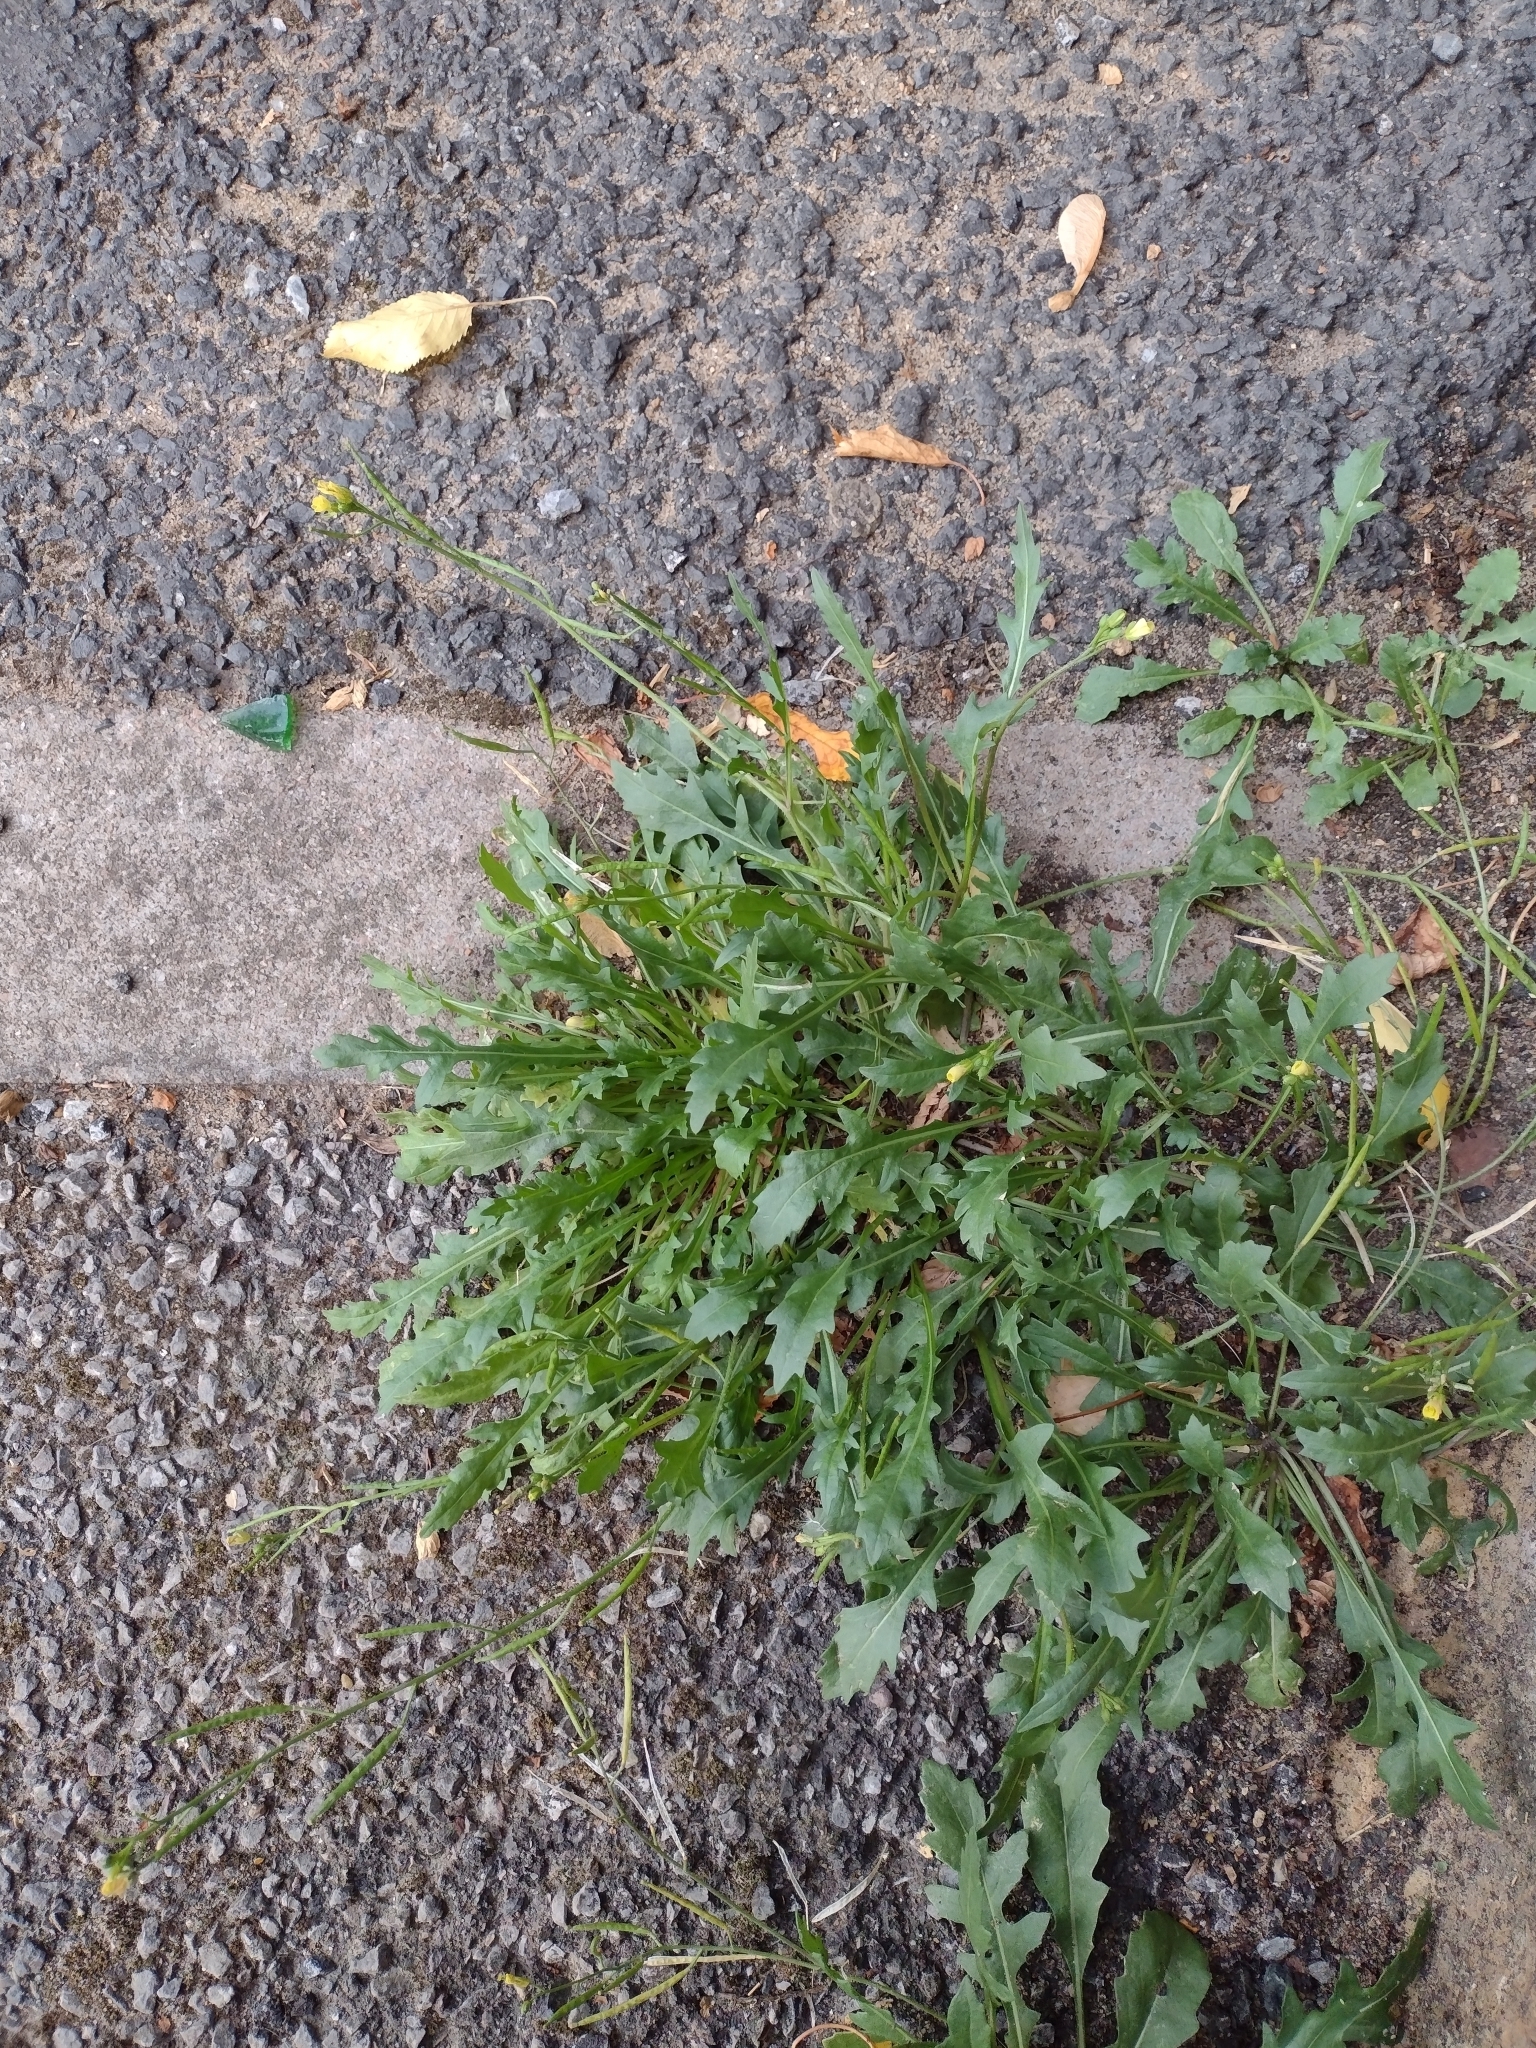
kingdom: Plantae
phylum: Tracheophyta
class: Magnoliopsida
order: Brassicales
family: Brassicaceae
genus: Diplotaxis
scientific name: Diplotaxis muralis
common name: Annual wall-rocket
